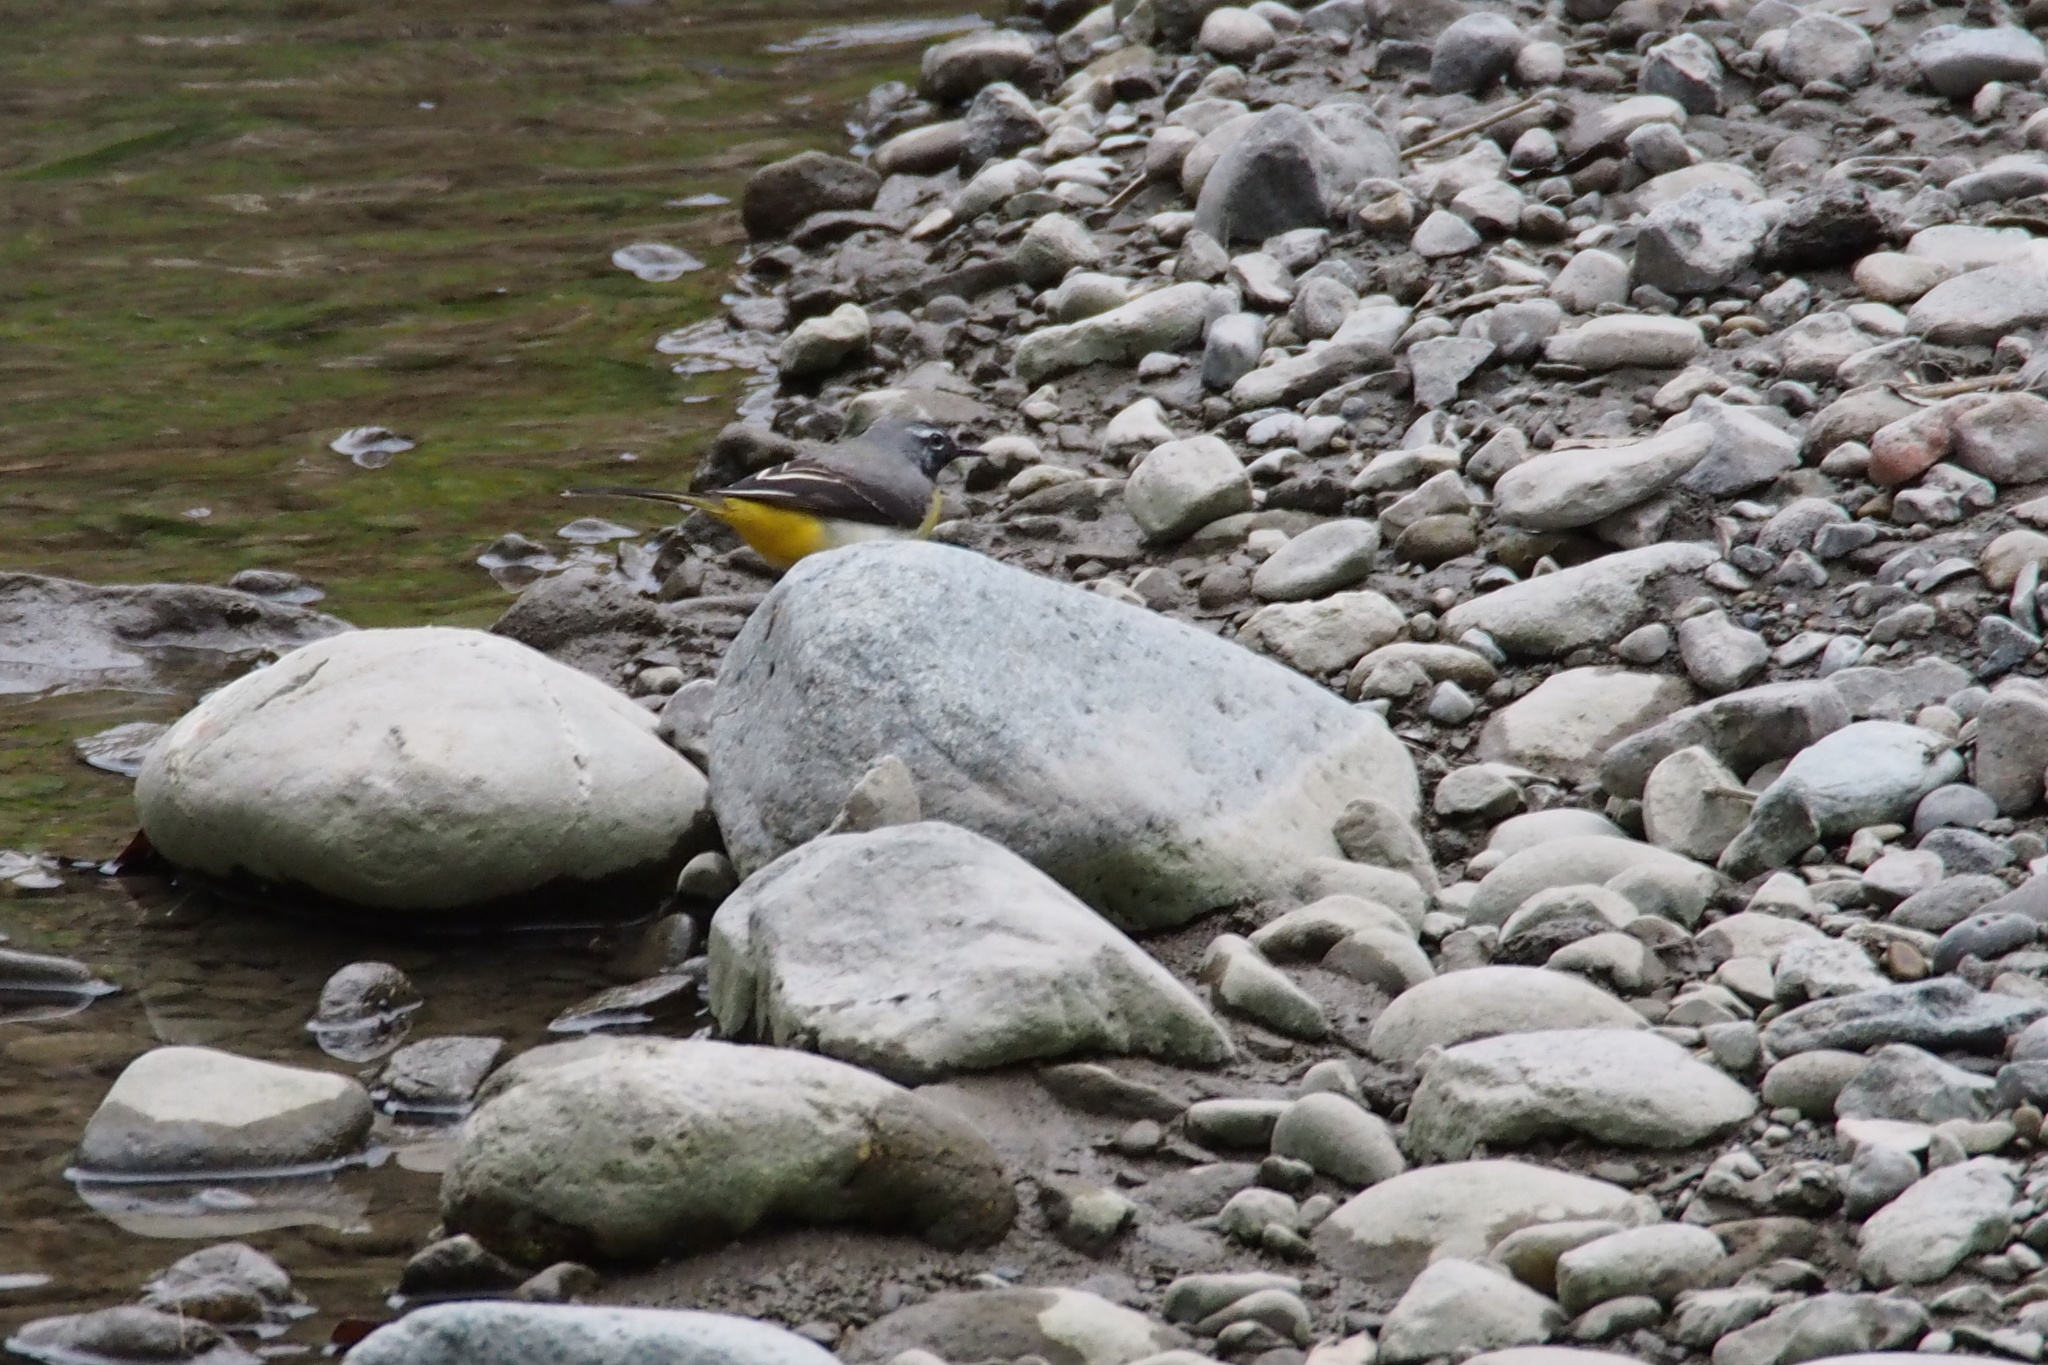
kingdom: Animalia
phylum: Chordata
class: Aves
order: Passeriformes
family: Motacillidae
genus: Motacilla
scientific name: Motacilla cinerea
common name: Grey wagtail
